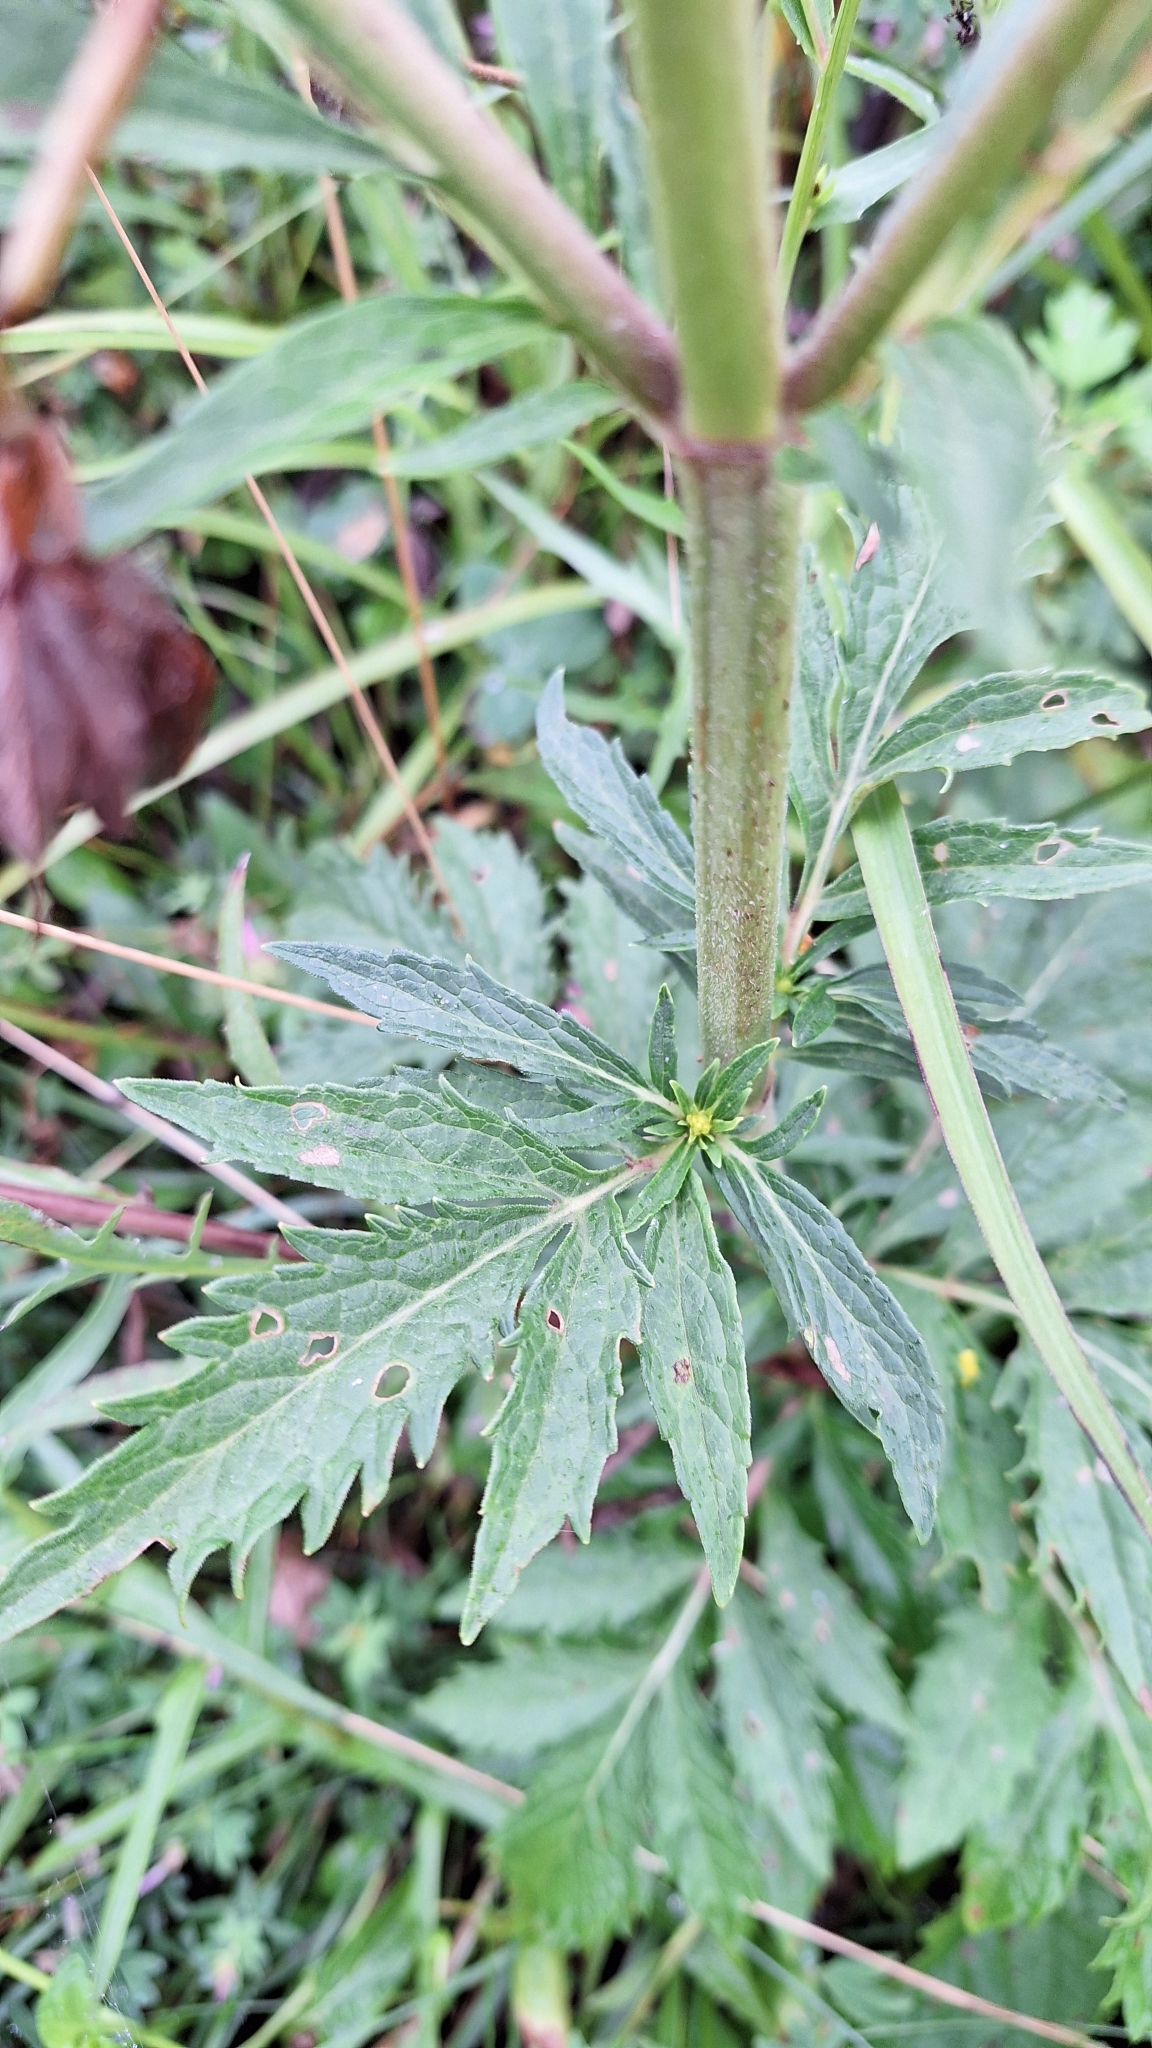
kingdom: Plantae
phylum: Tracheophyta
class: Magnoliopsida
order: Dipsacales
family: Caprifoliaceae
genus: Patrinia
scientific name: Patrinia scabiosifolia
